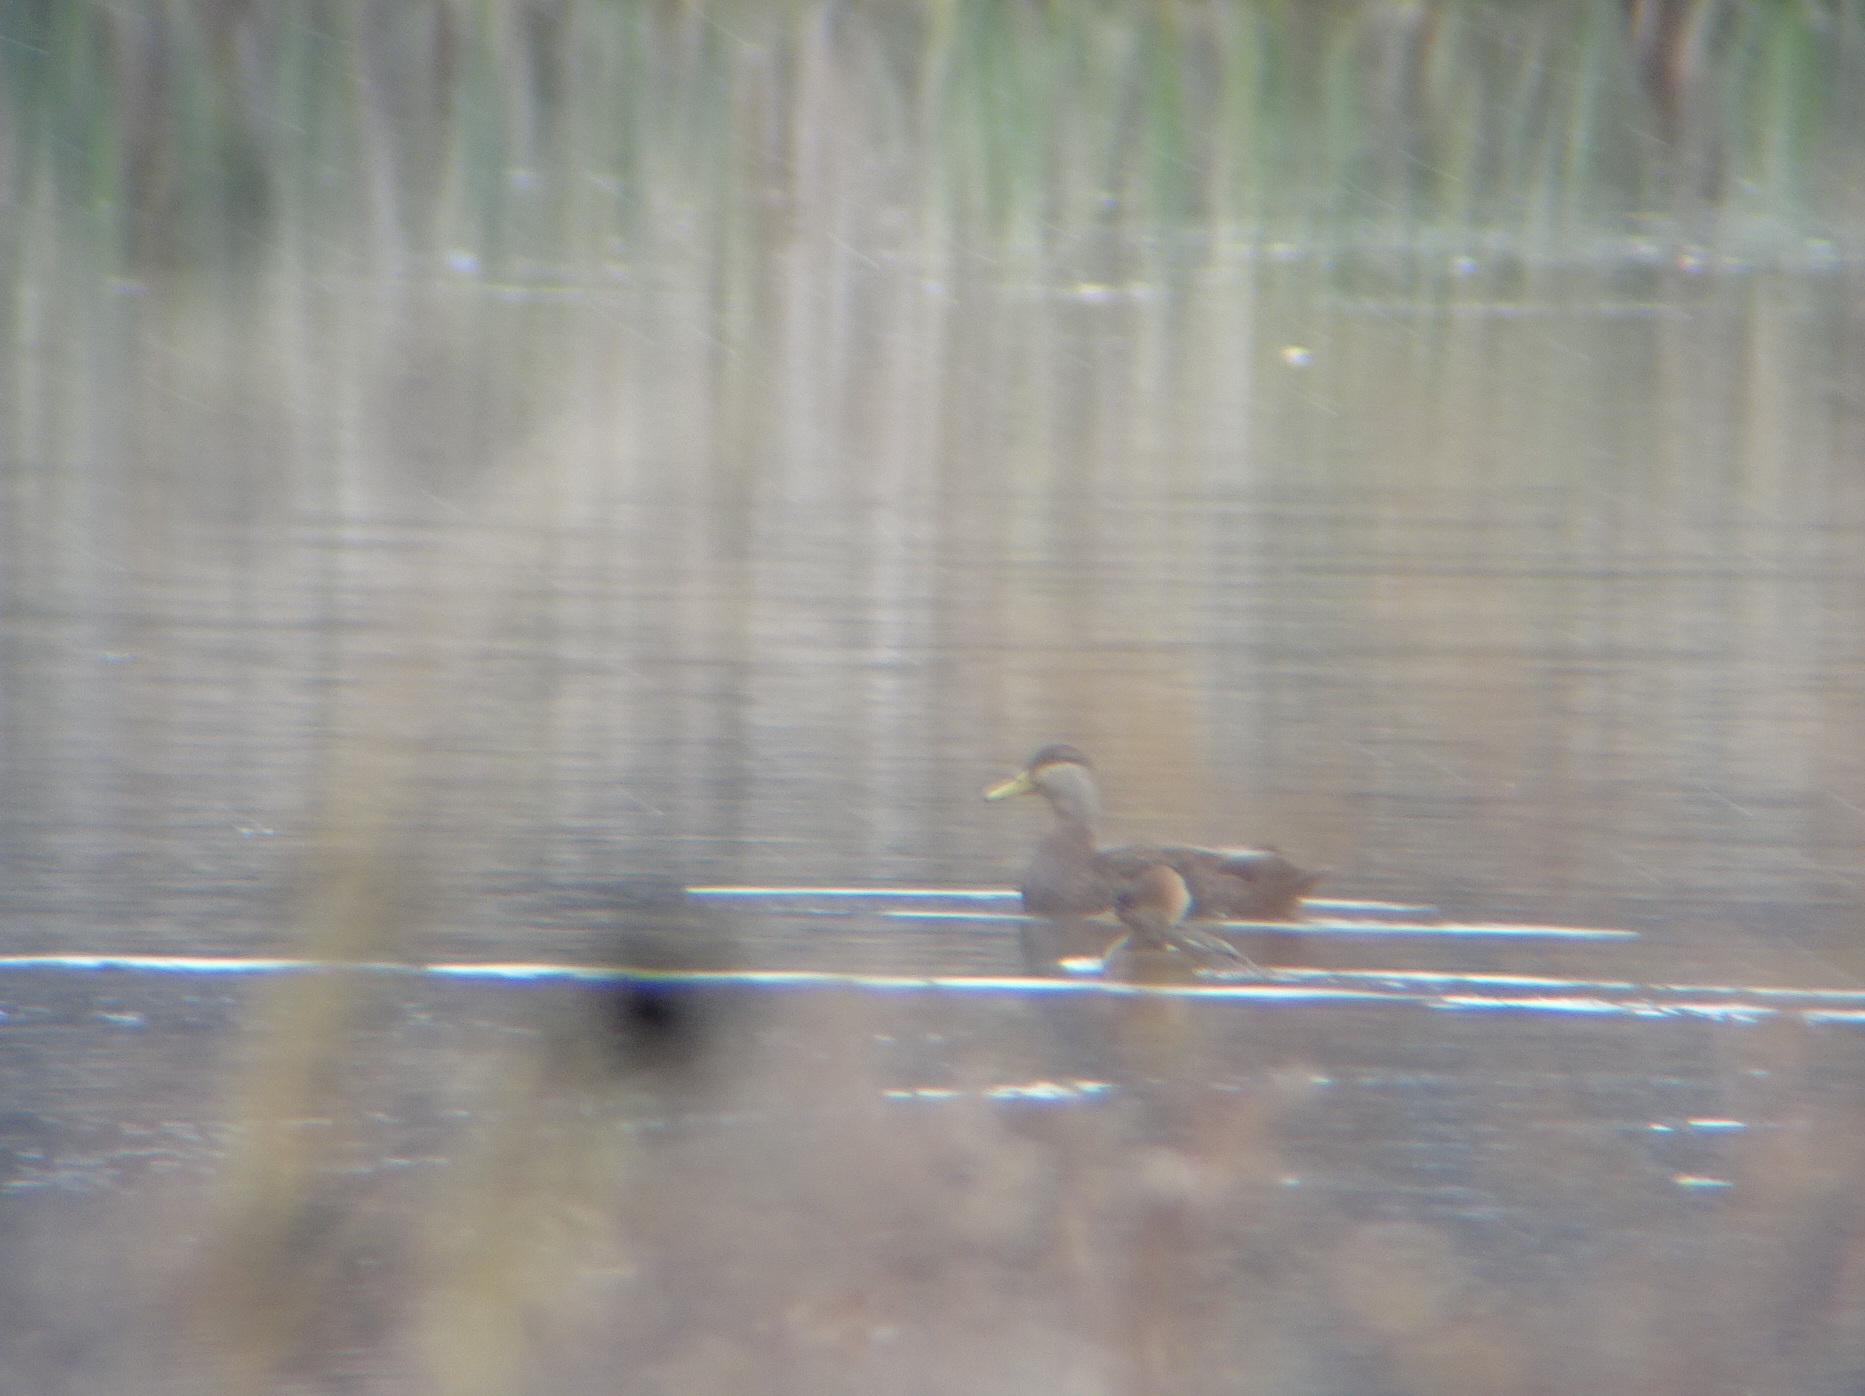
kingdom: Animalia
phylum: Chordata
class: Aves
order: Anseriformes
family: Anatidae
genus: Anas
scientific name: Anas rubripes
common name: American black duck
